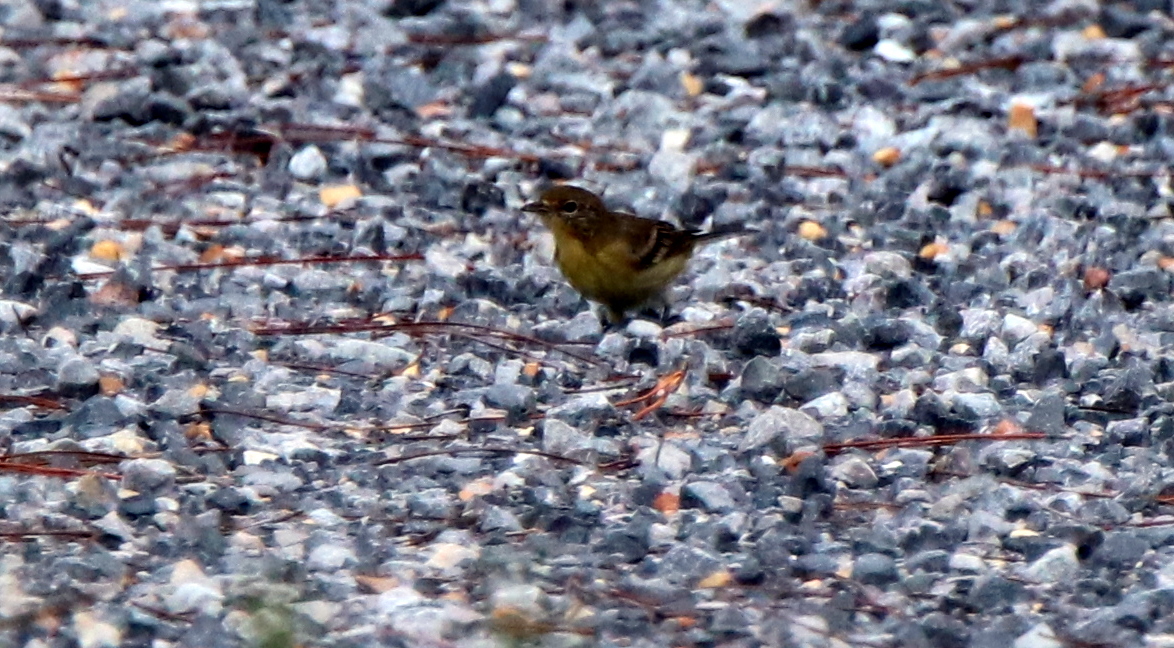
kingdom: Animalia
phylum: Chordata
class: Aves
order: Passeriformes
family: Parulidae
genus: Setophaga
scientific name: Setophaga pinus
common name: Pine warbler
